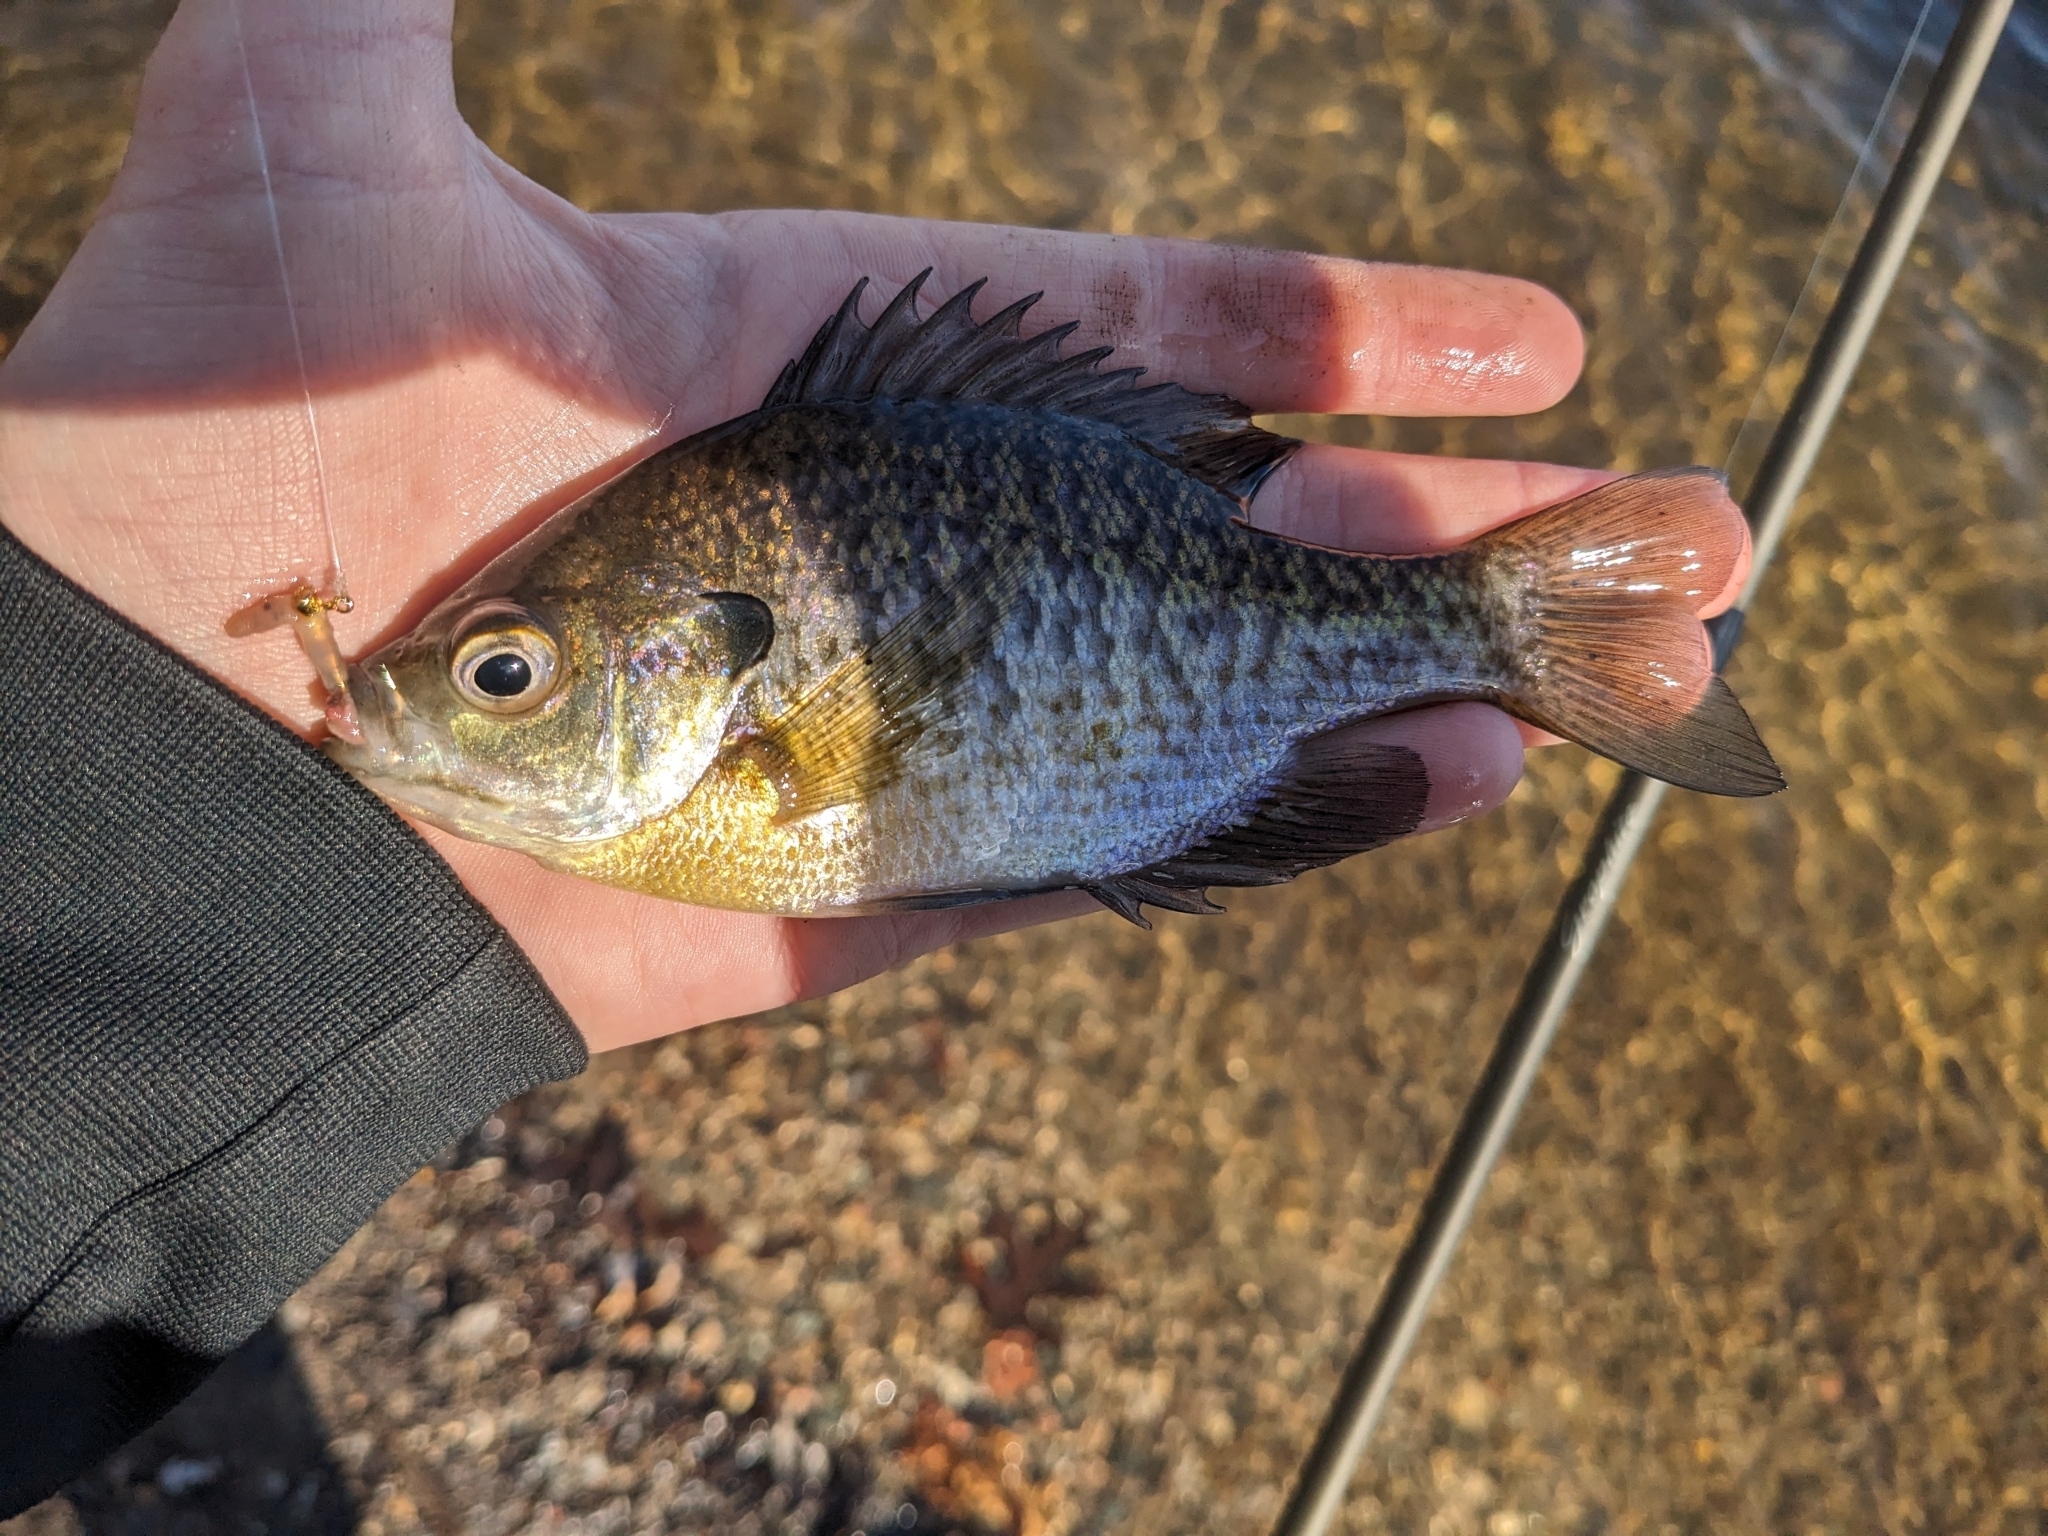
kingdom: Animalia
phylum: Chordata
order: Perciformes
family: Centrarchidae
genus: Lepomis
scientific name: Lepomis macrochirus
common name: Bluegill
